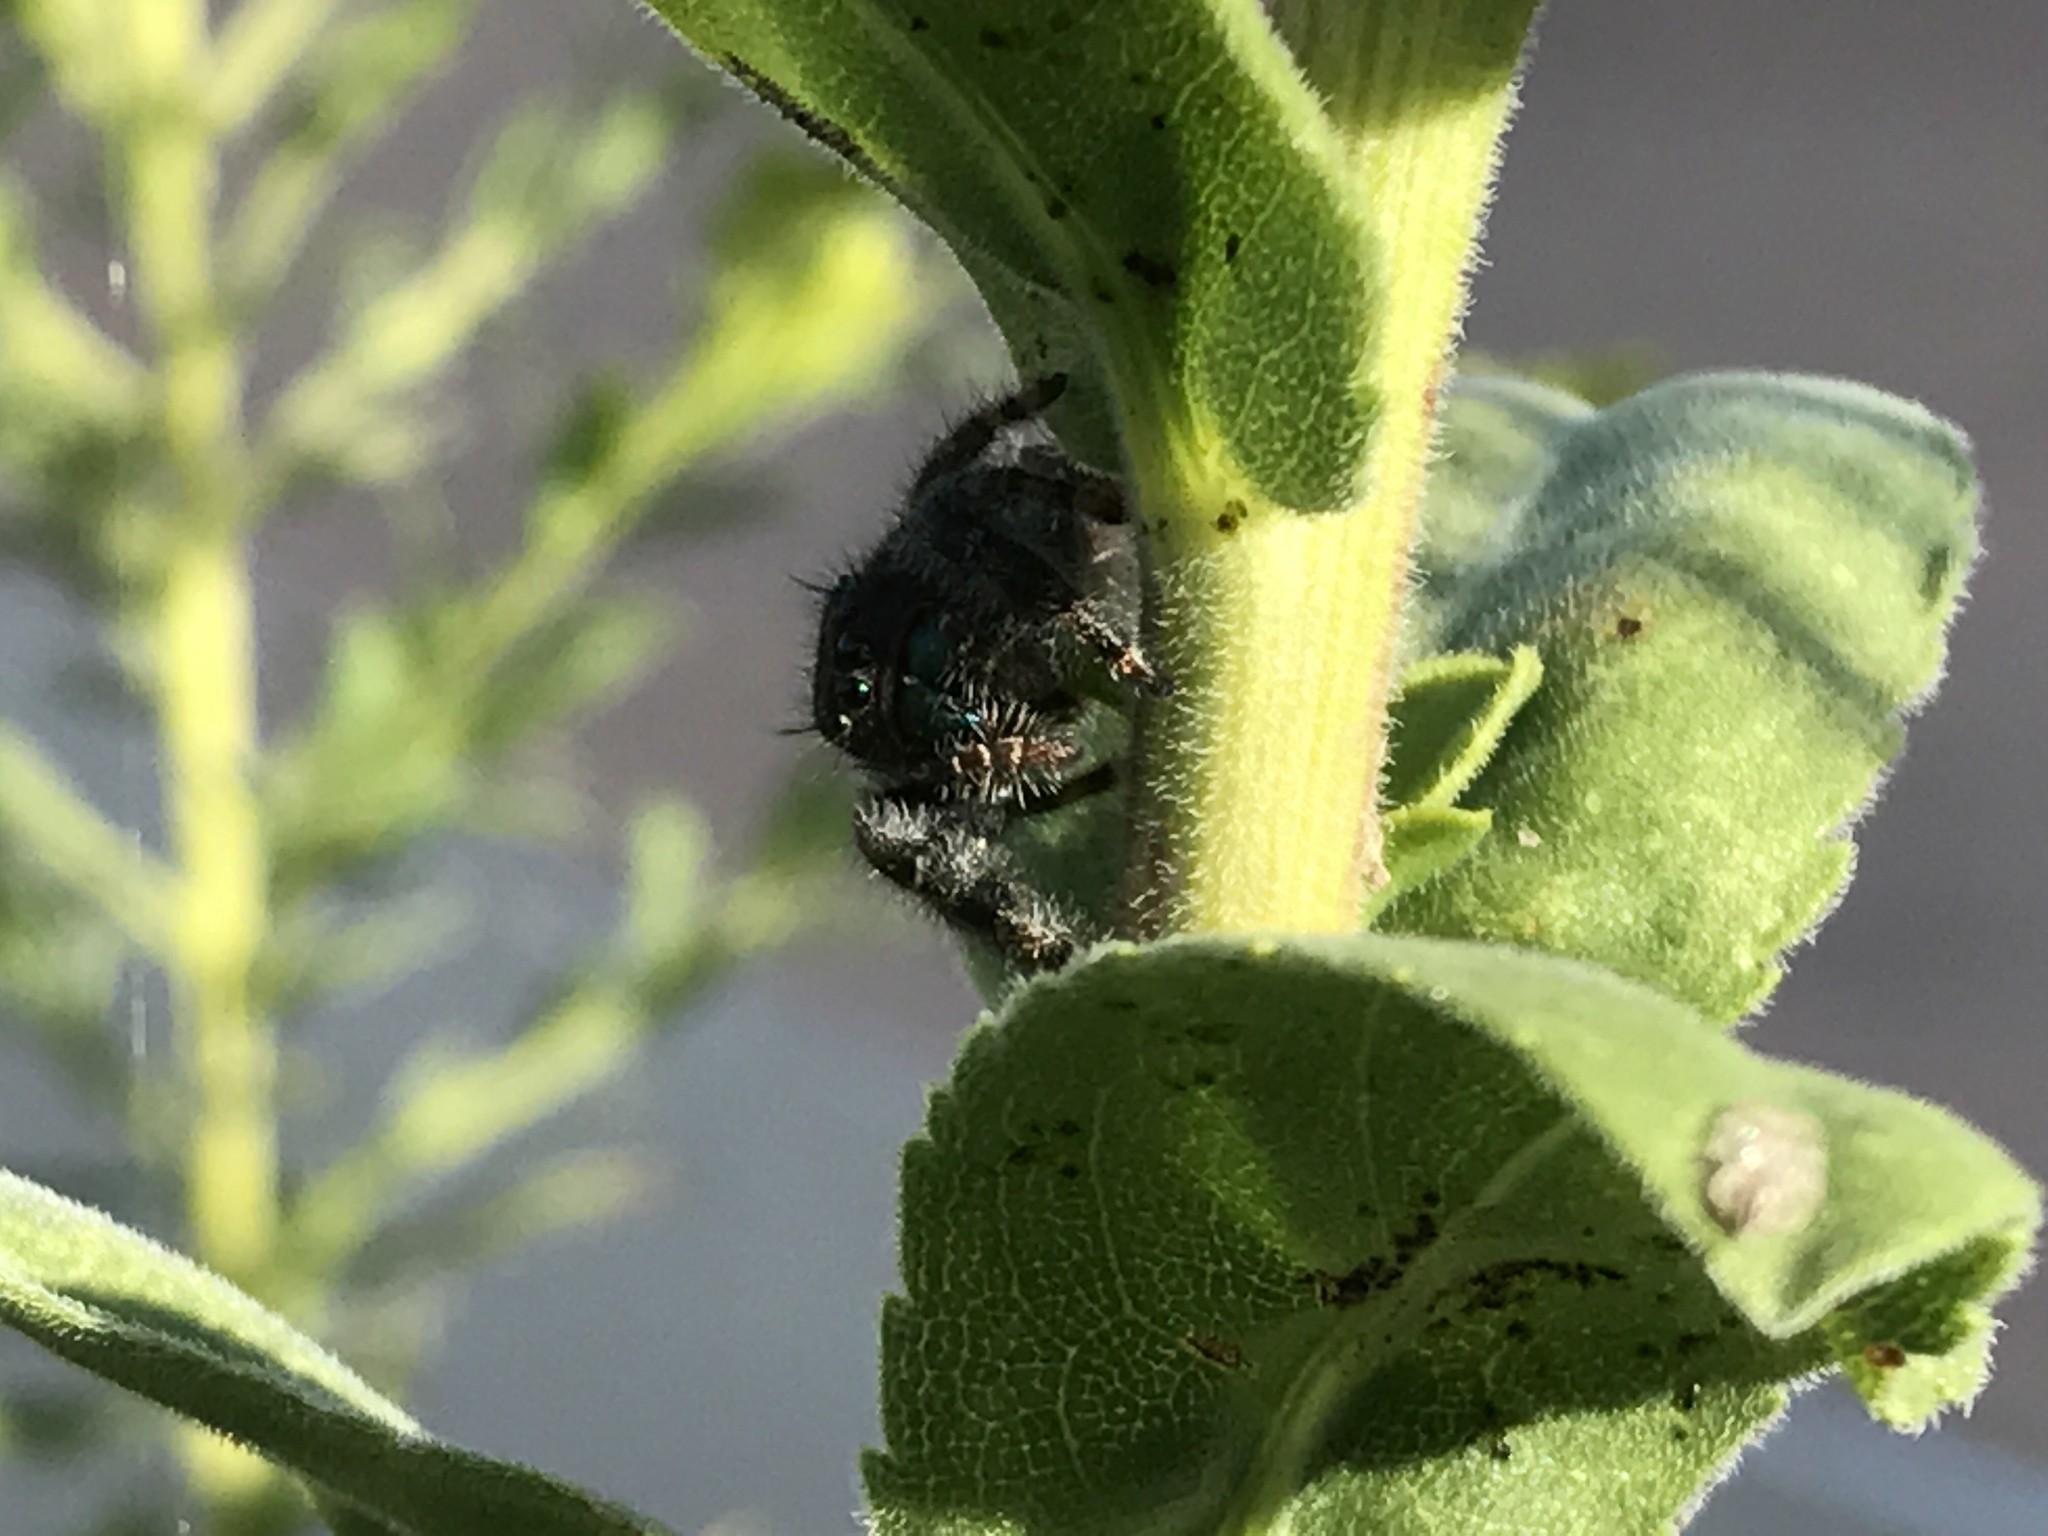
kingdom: Animalia
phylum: Arthropoda
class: Arachnida
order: Araneae
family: Salticidae
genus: Phidippus
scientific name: Phidippus audax
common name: Bold jumper
